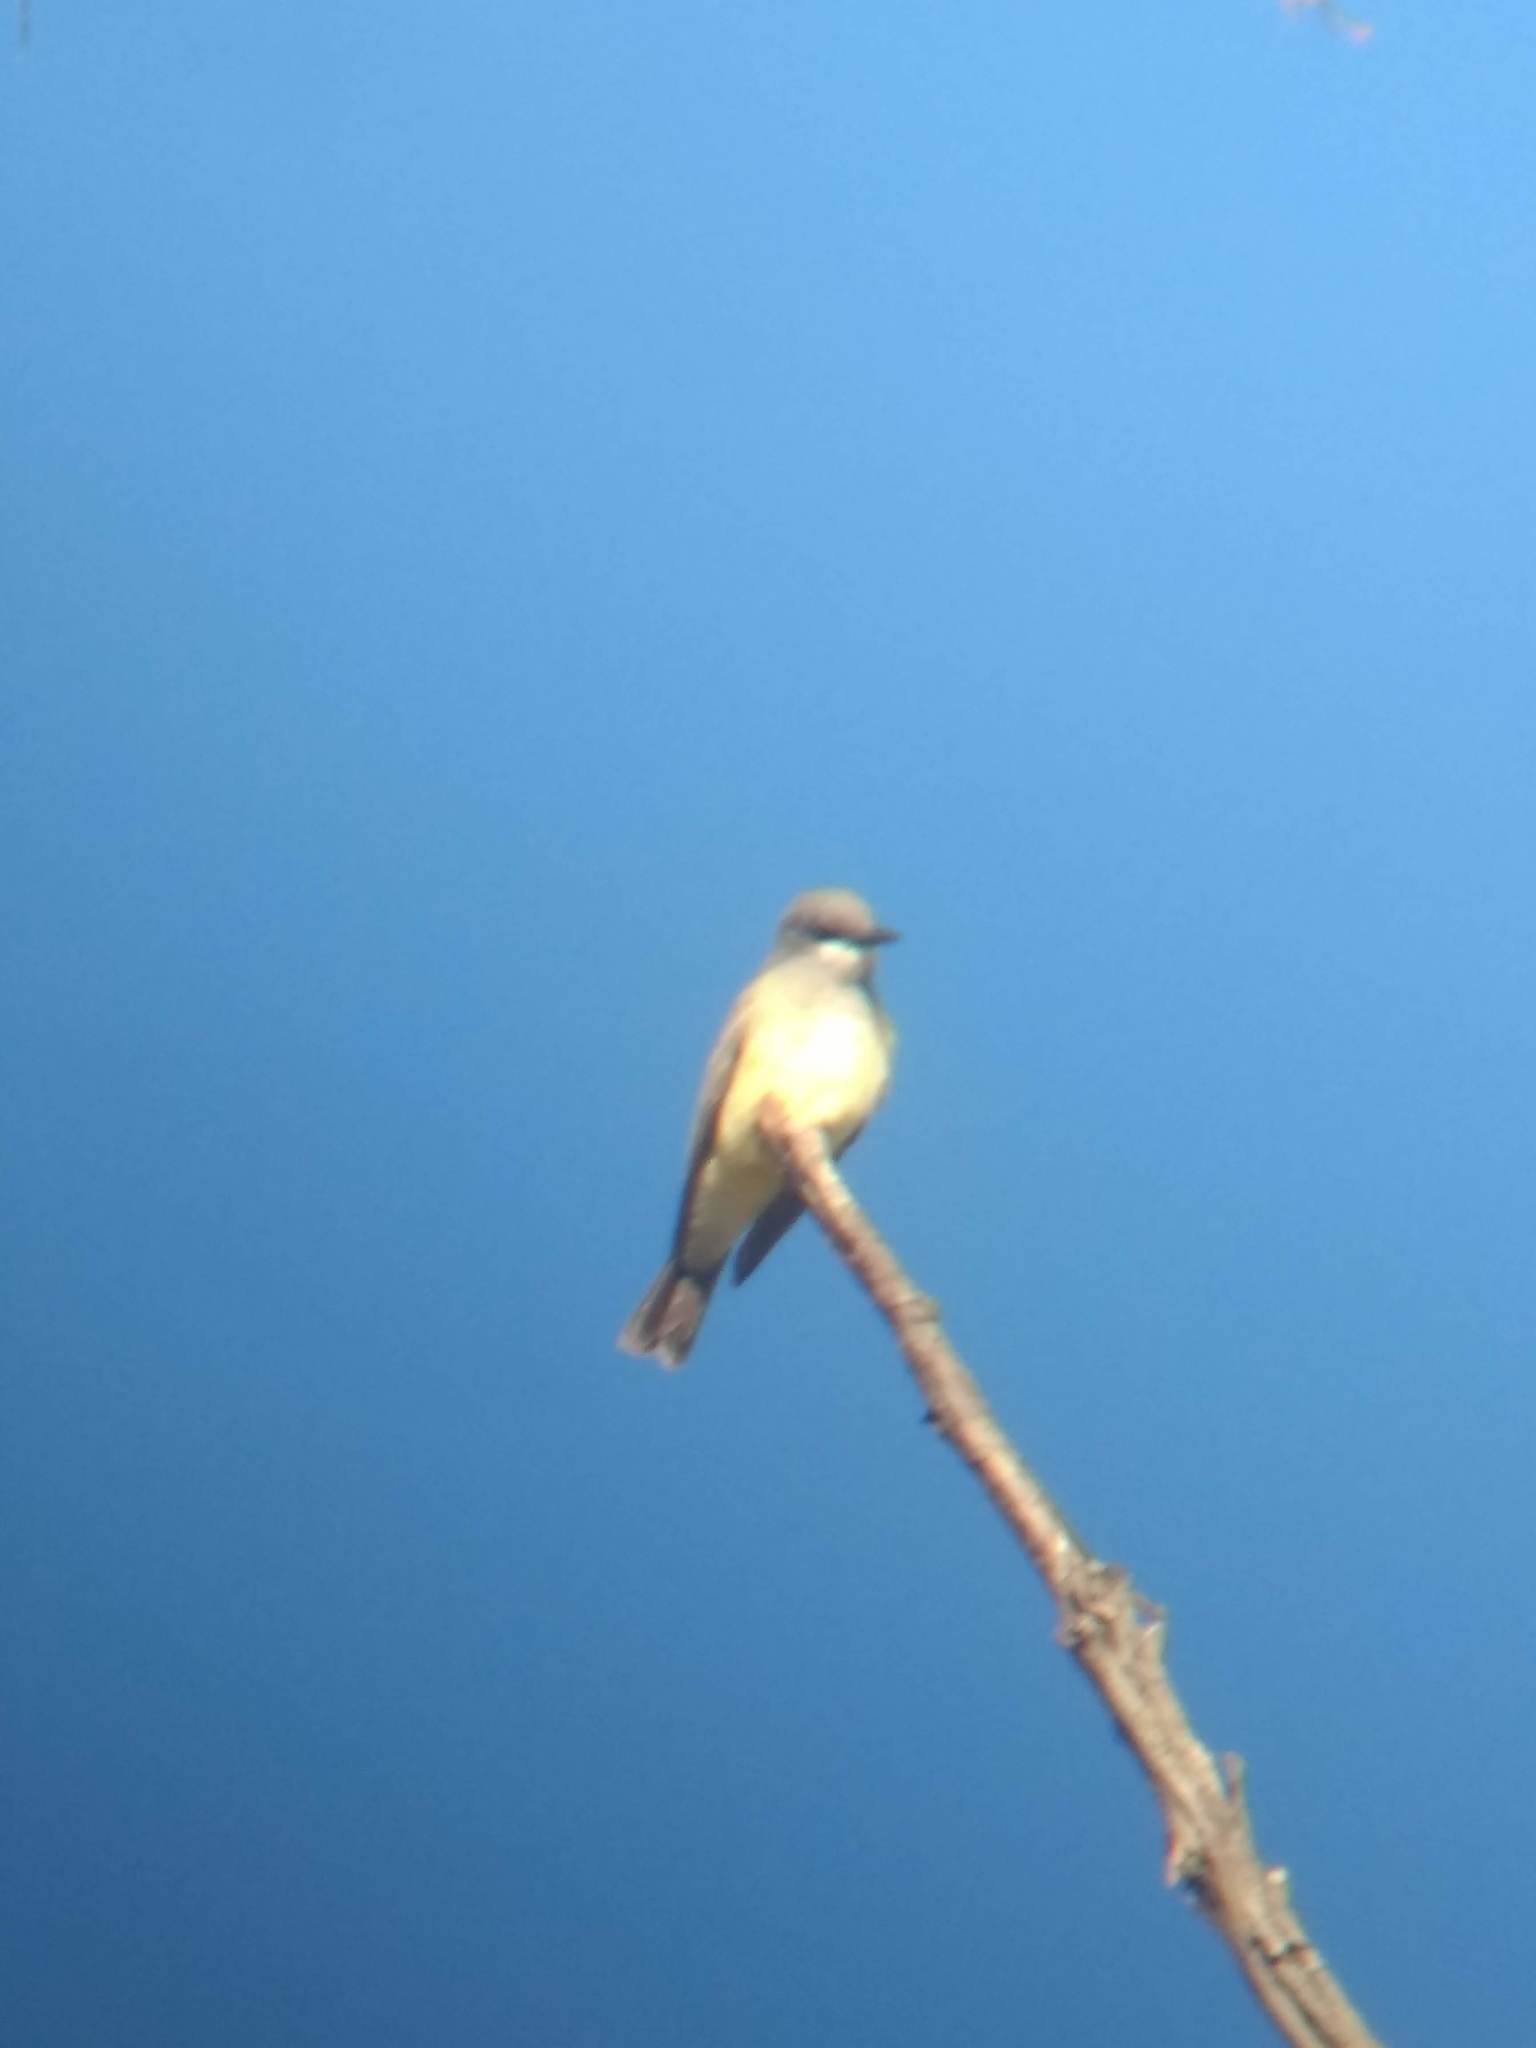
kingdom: Animalia
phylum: Chordata
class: Aves
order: Passeriformes
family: Tyrannidae
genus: Tyrannus
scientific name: Tyrannus vociferans
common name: Cassin's kingbird
